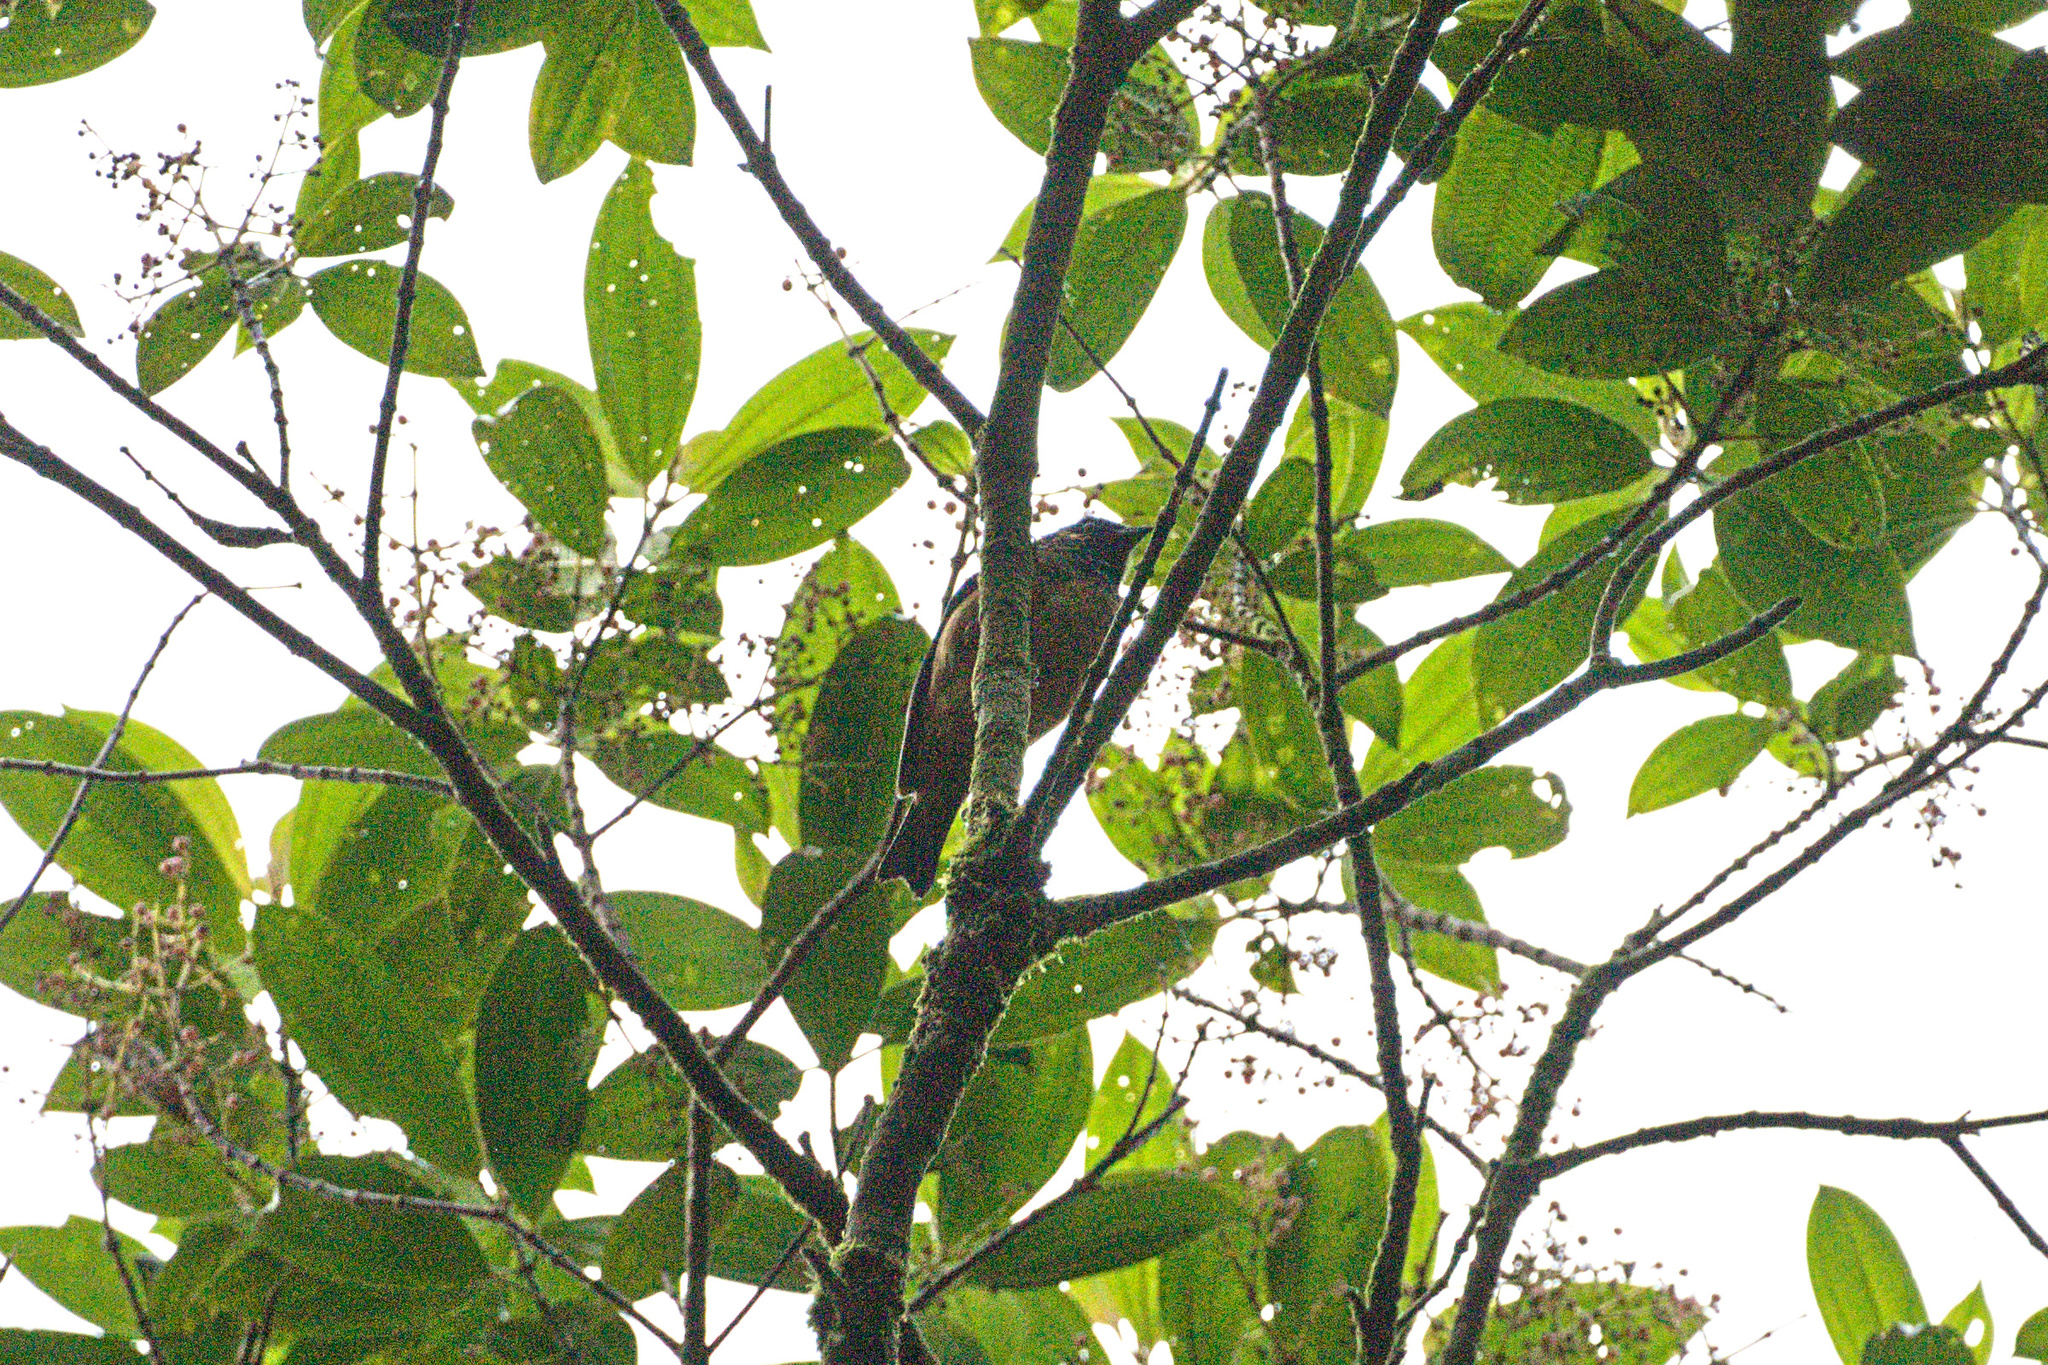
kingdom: Animalia
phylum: Chordata
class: Aves
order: Passeriformes
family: Thraupidae
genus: Tangara
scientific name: Tangara dowii
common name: Spangle-cheeked tanager
